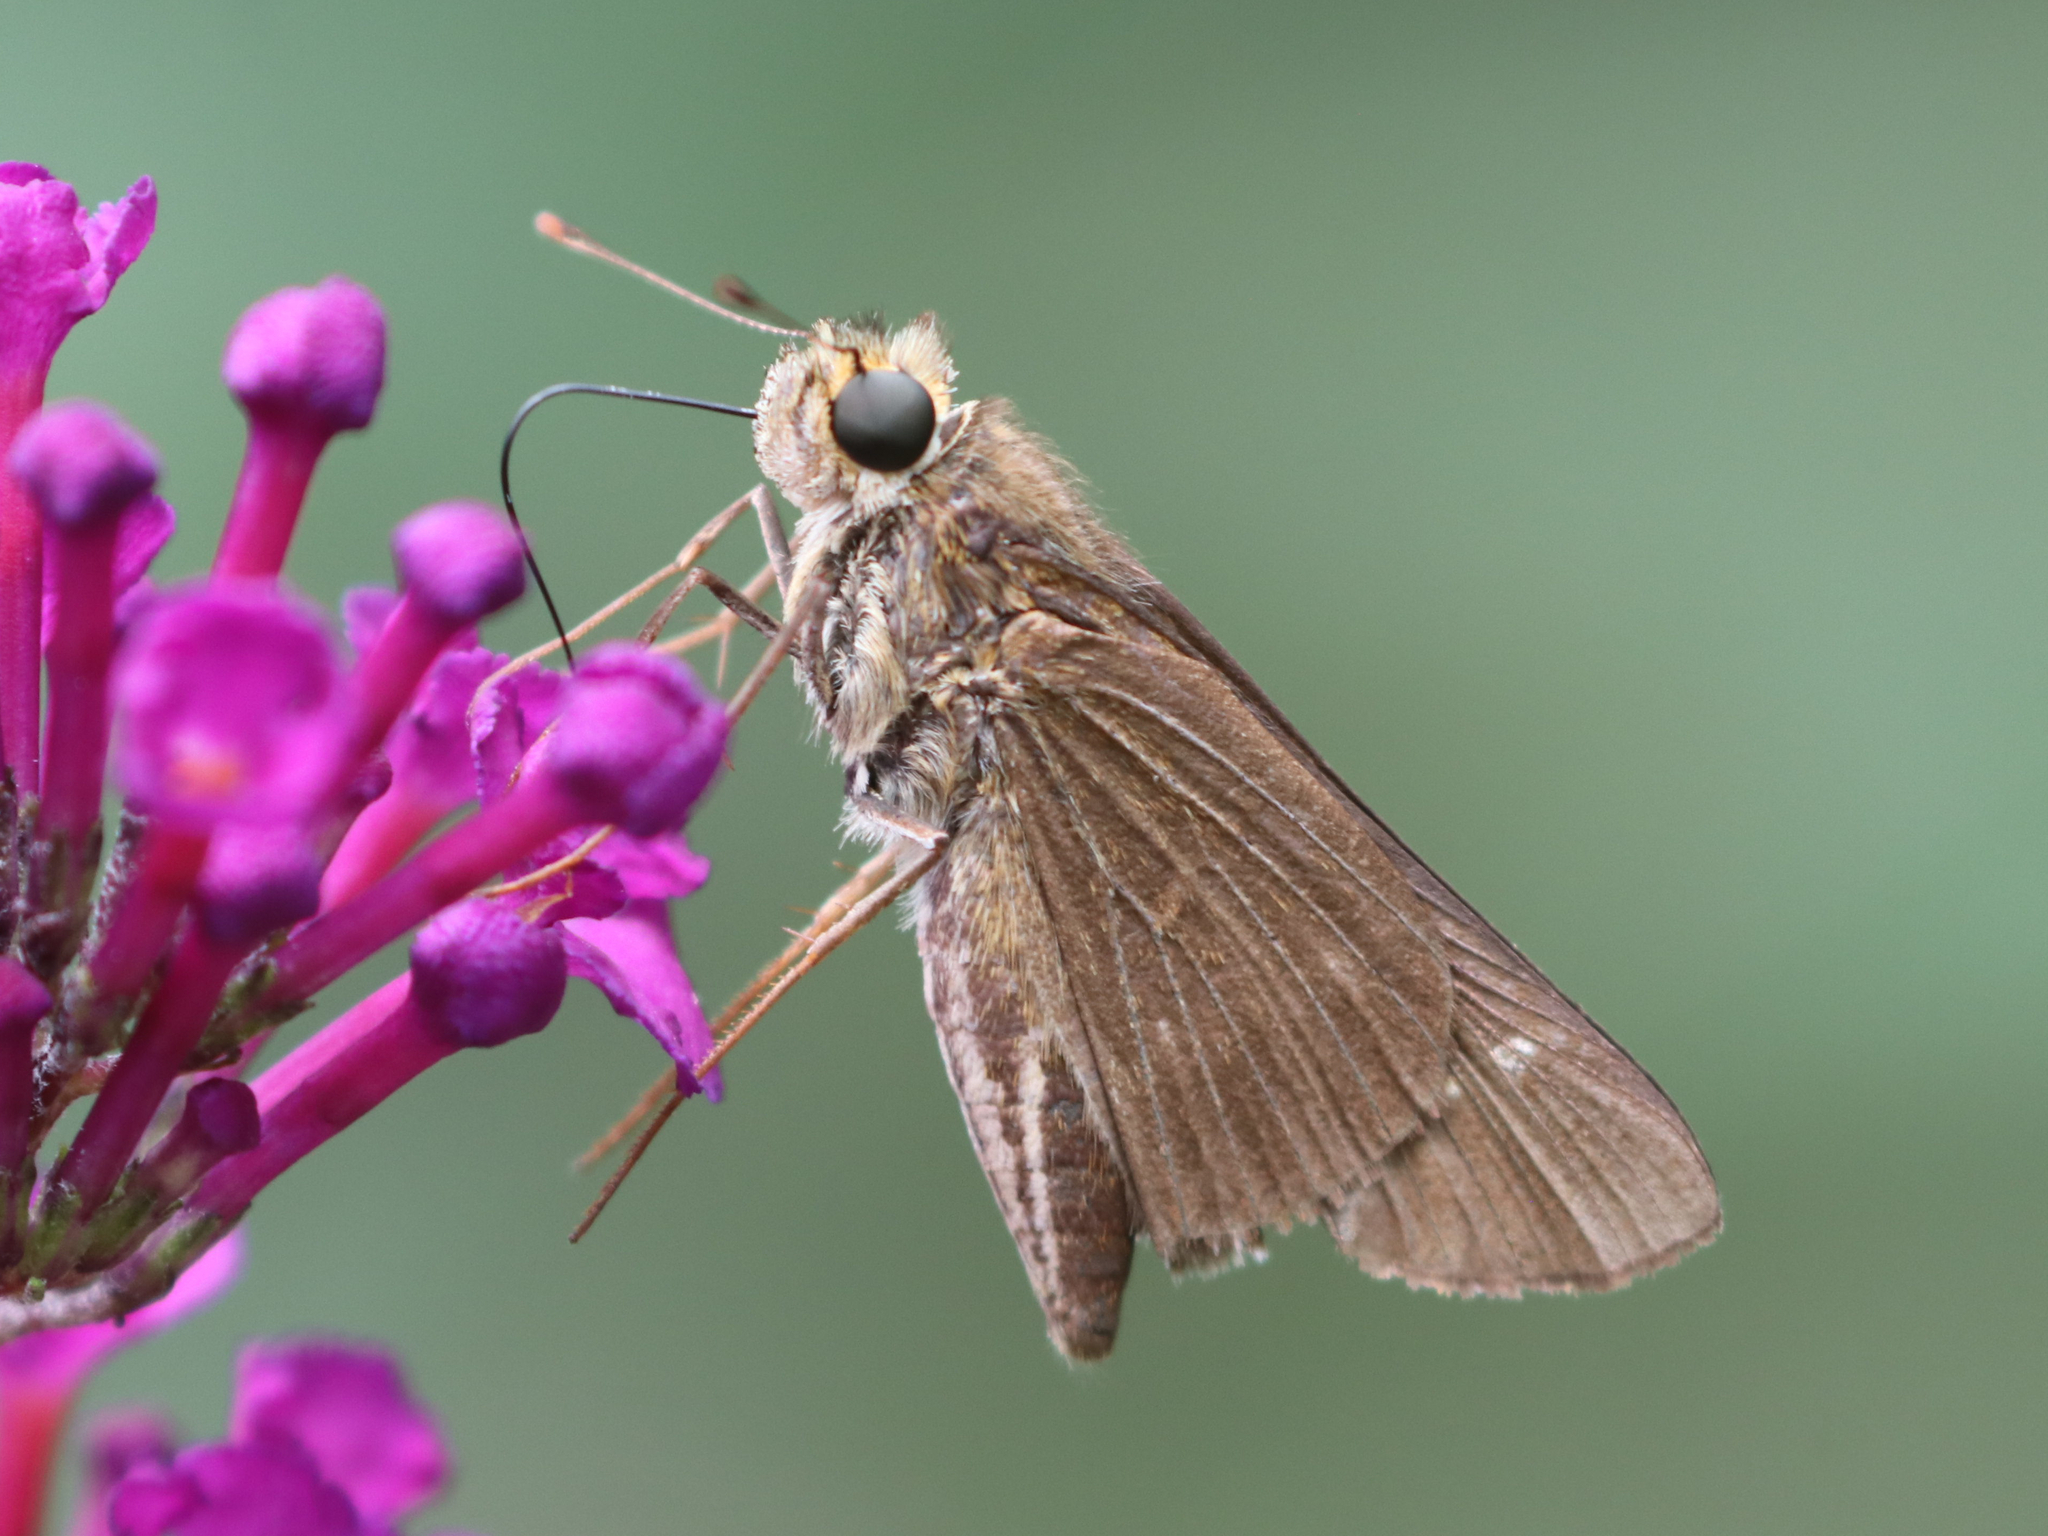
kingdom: Animalia
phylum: Arthropoda
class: Insecta
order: Lepidoptera
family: Hesperiidae
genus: Panoquina
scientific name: Panoquina ocola
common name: Ocola skipper
